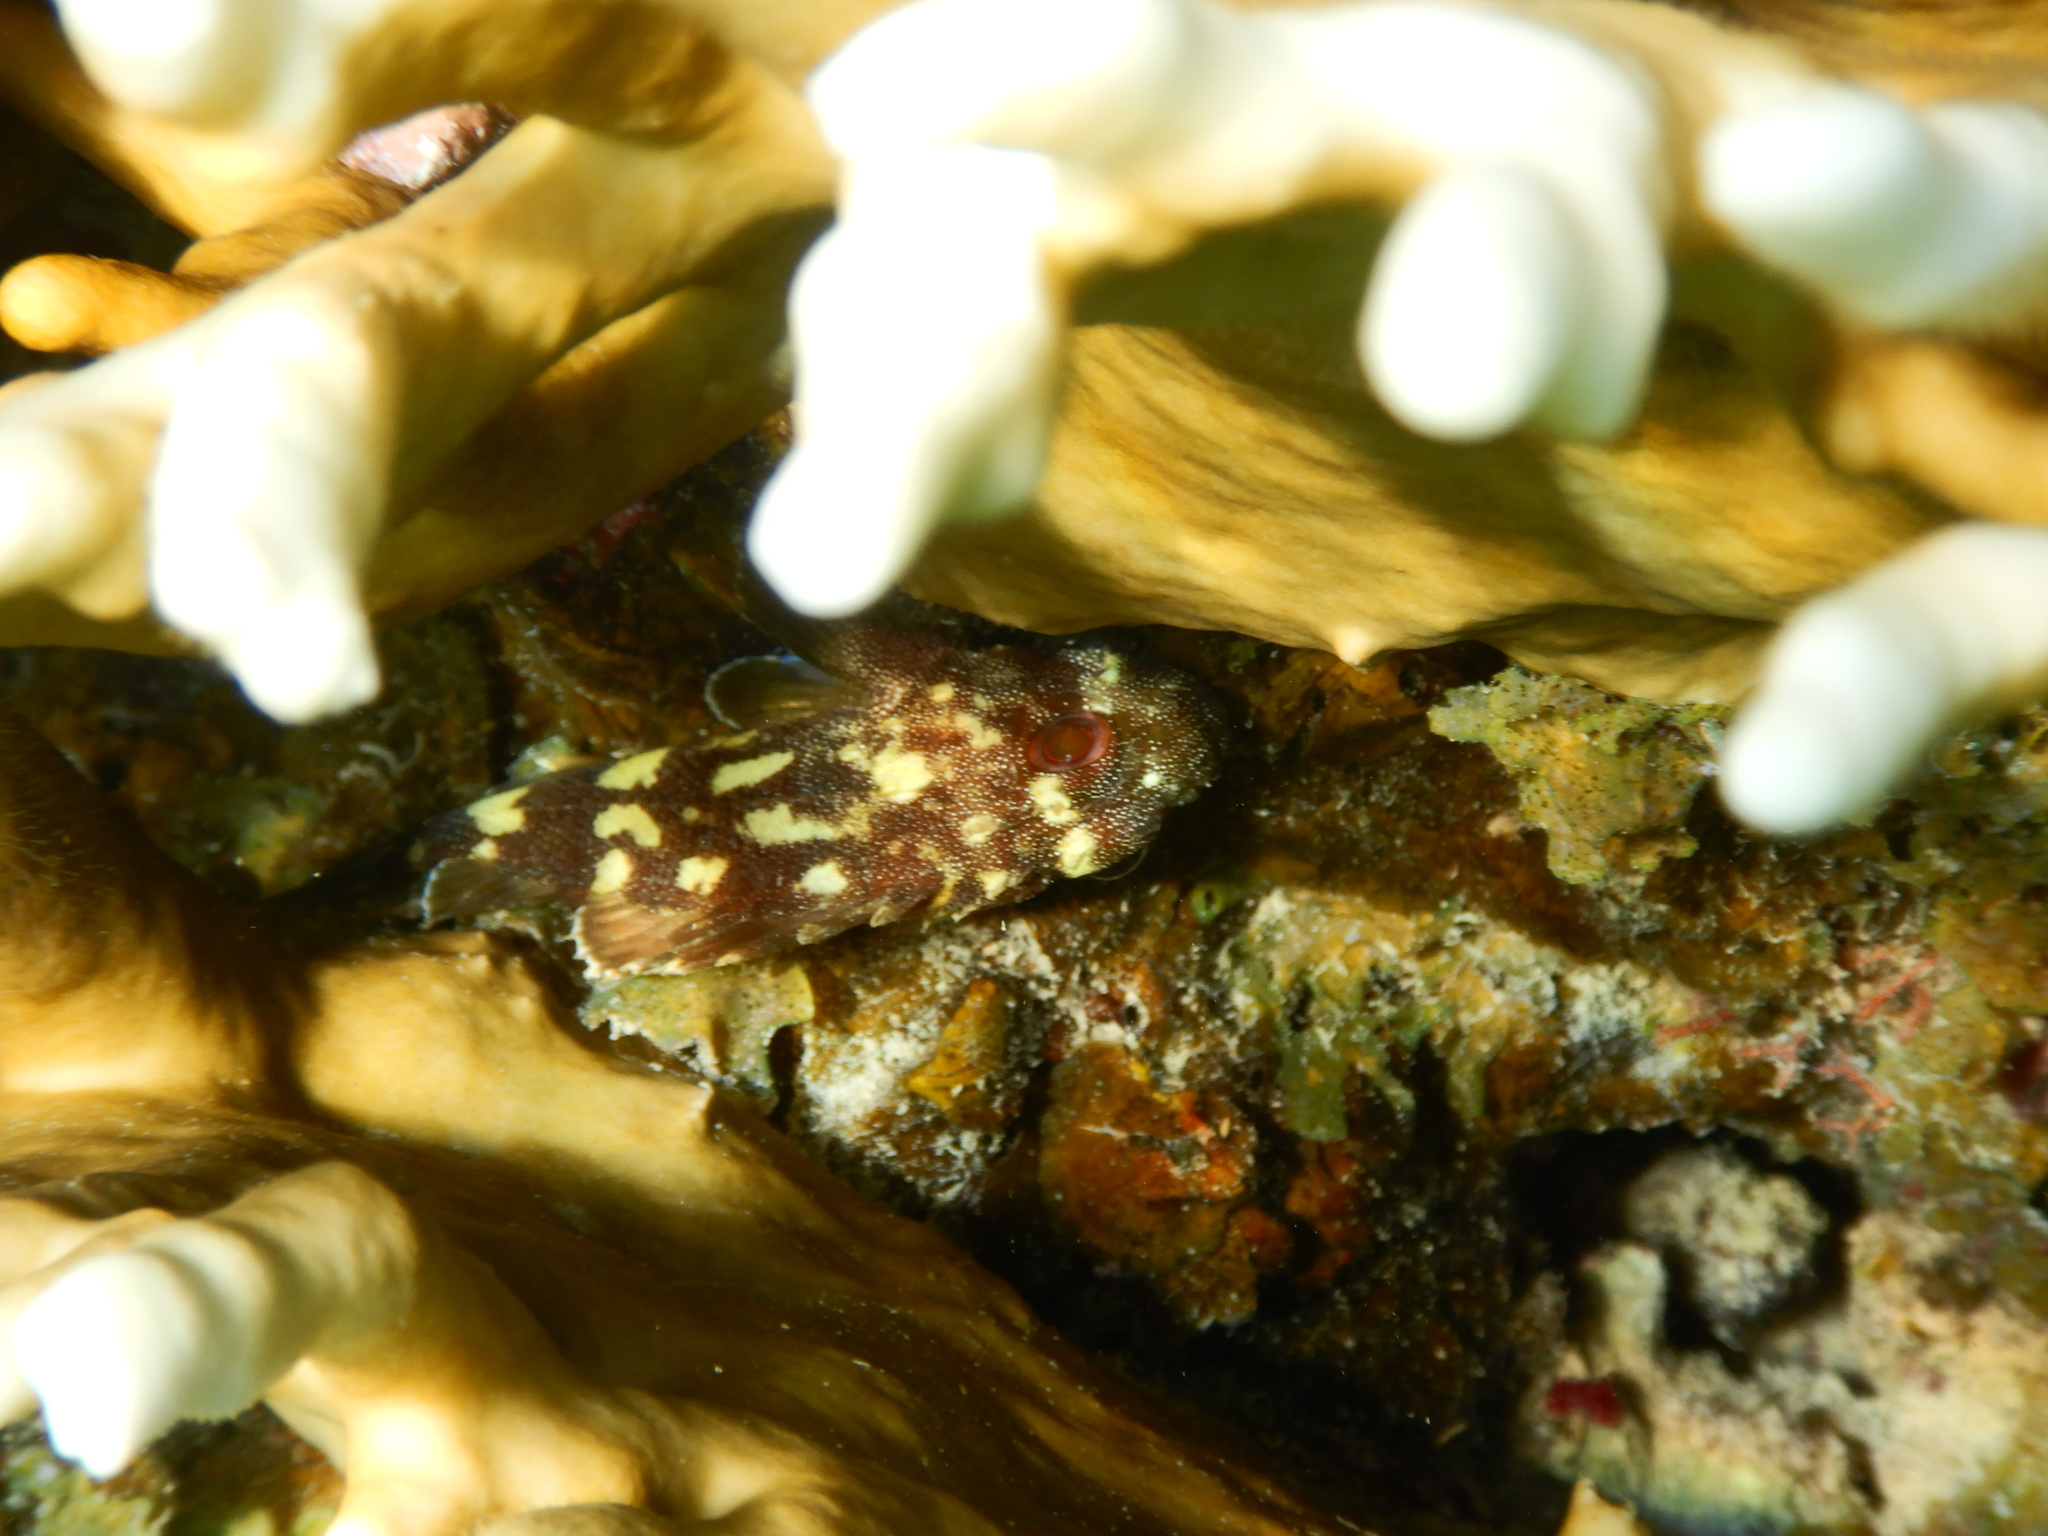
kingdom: Animalia
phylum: Chordata
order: Scorpaeniformes
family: Scorpaenidae
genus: Sebastapistes
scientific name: Sebastapistes cyanostigma
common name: Yellowspotted scorpionfish
